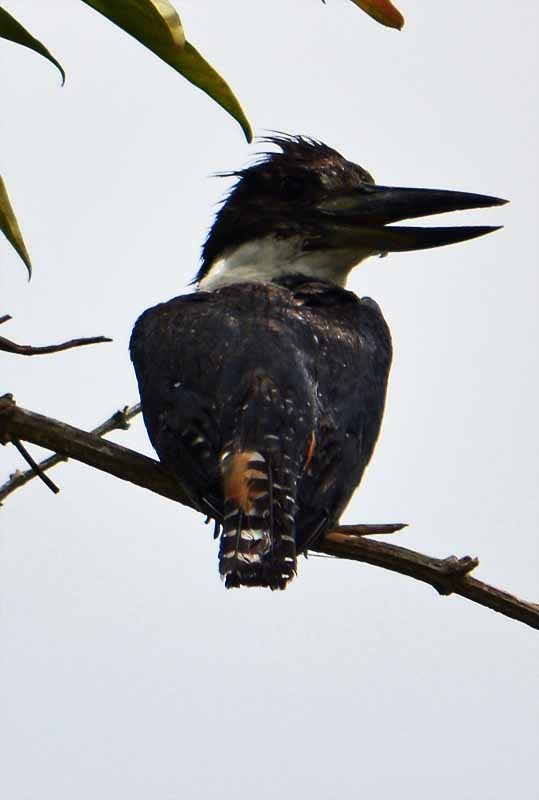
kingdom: Animalia
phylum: Chordata
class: Aves
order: Coraciiformes
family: Alcedinidae
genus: Megaceryle
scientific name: Megaceryle torquata
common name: Ringed kingfisher
